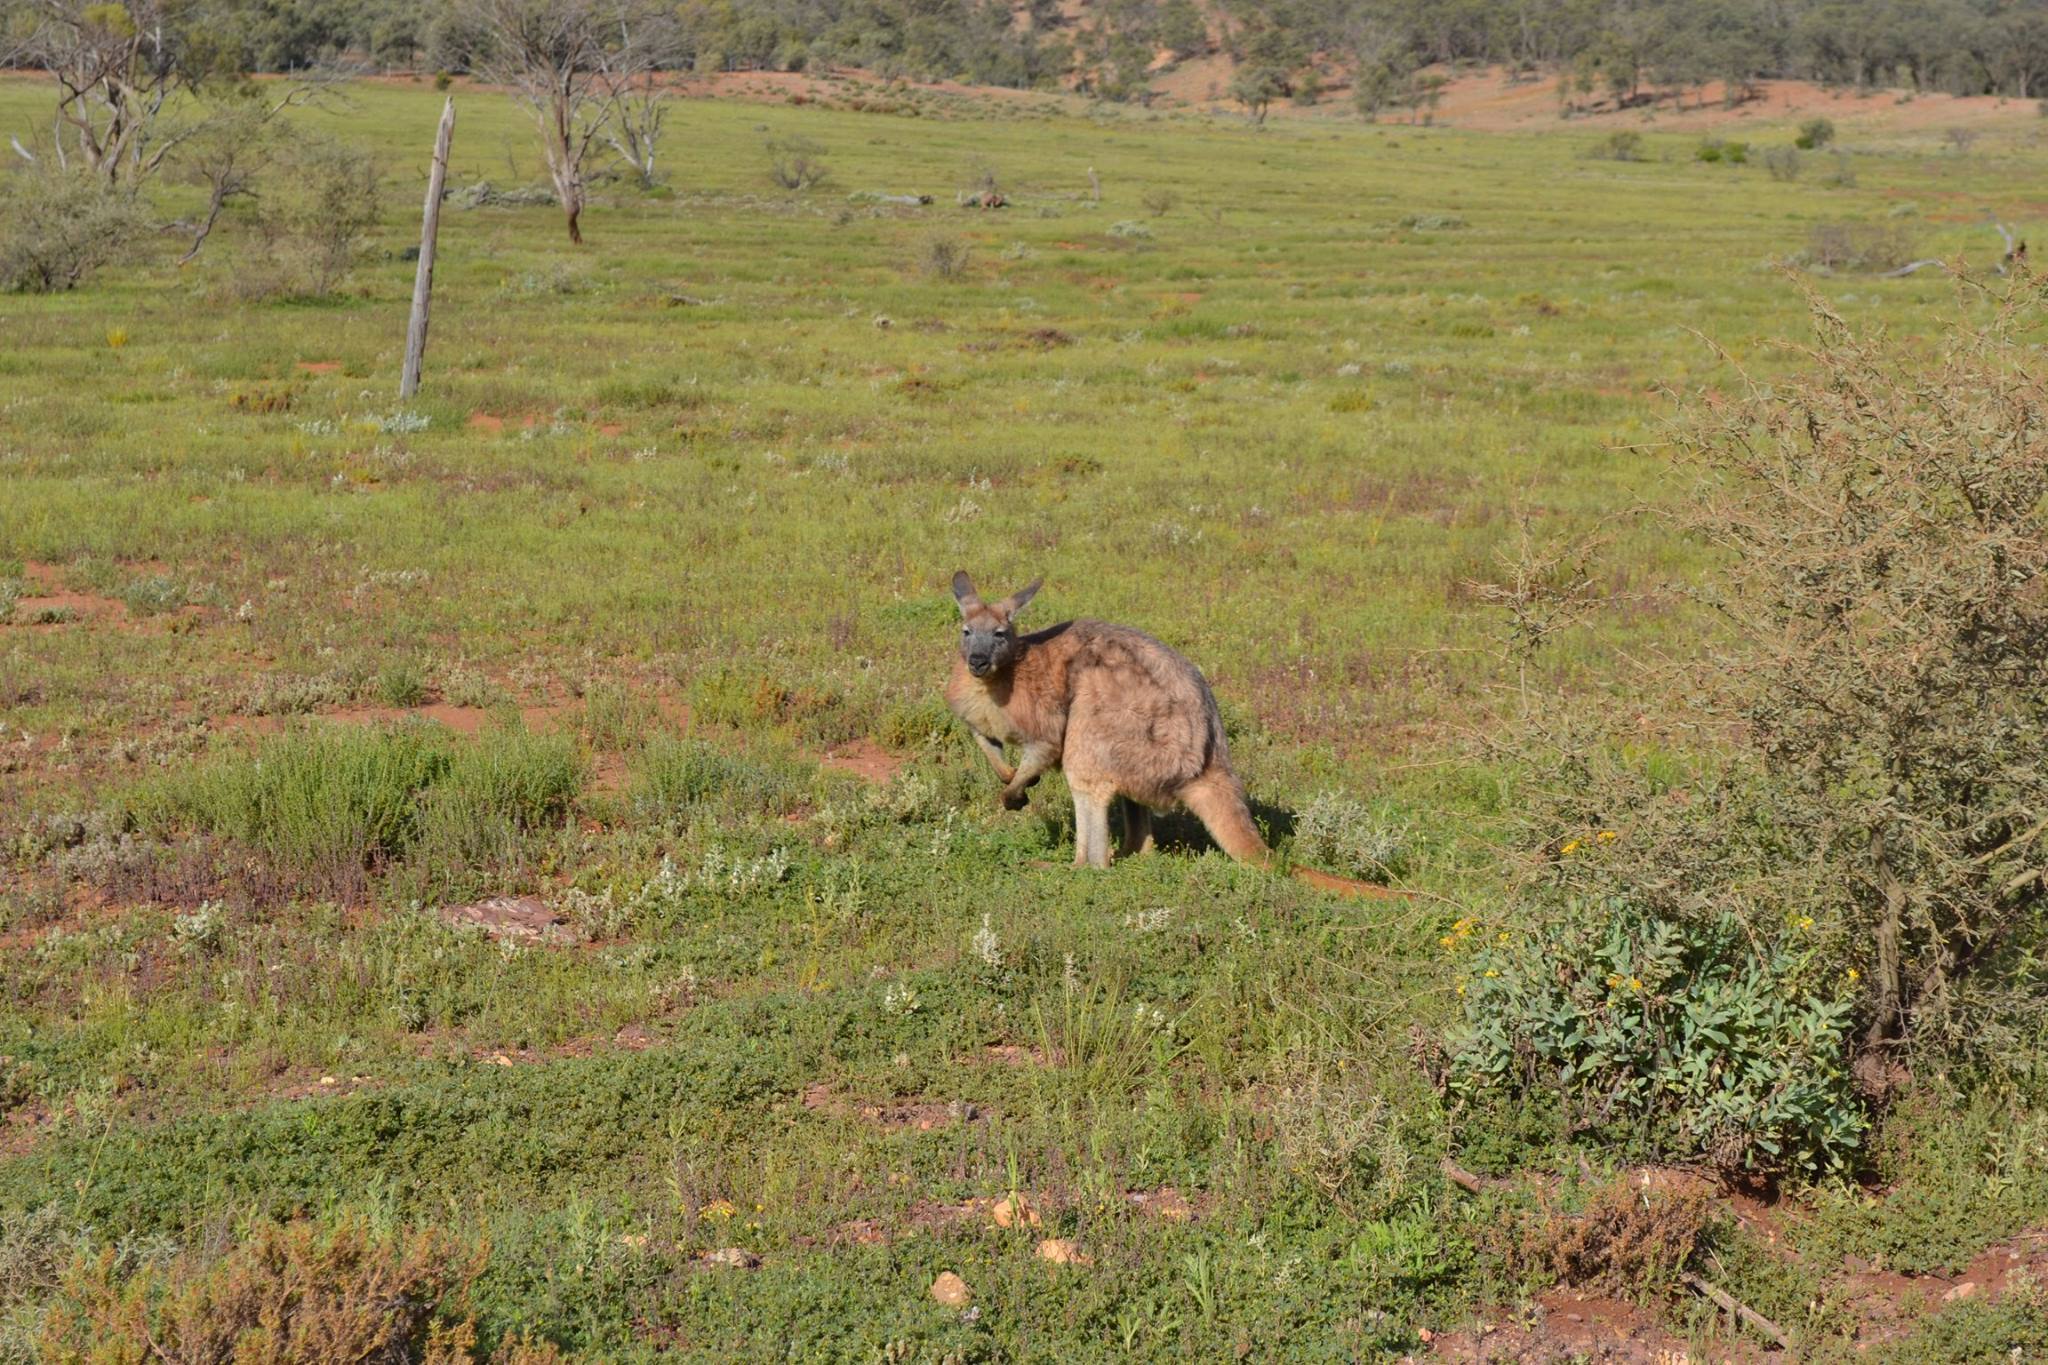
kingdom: Animalia
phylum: Chordata
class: Mammalia
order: Diprotodontia
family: Macropodidae
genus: Macropus
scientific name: Macropus robustus
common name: Eastern wallaroo
